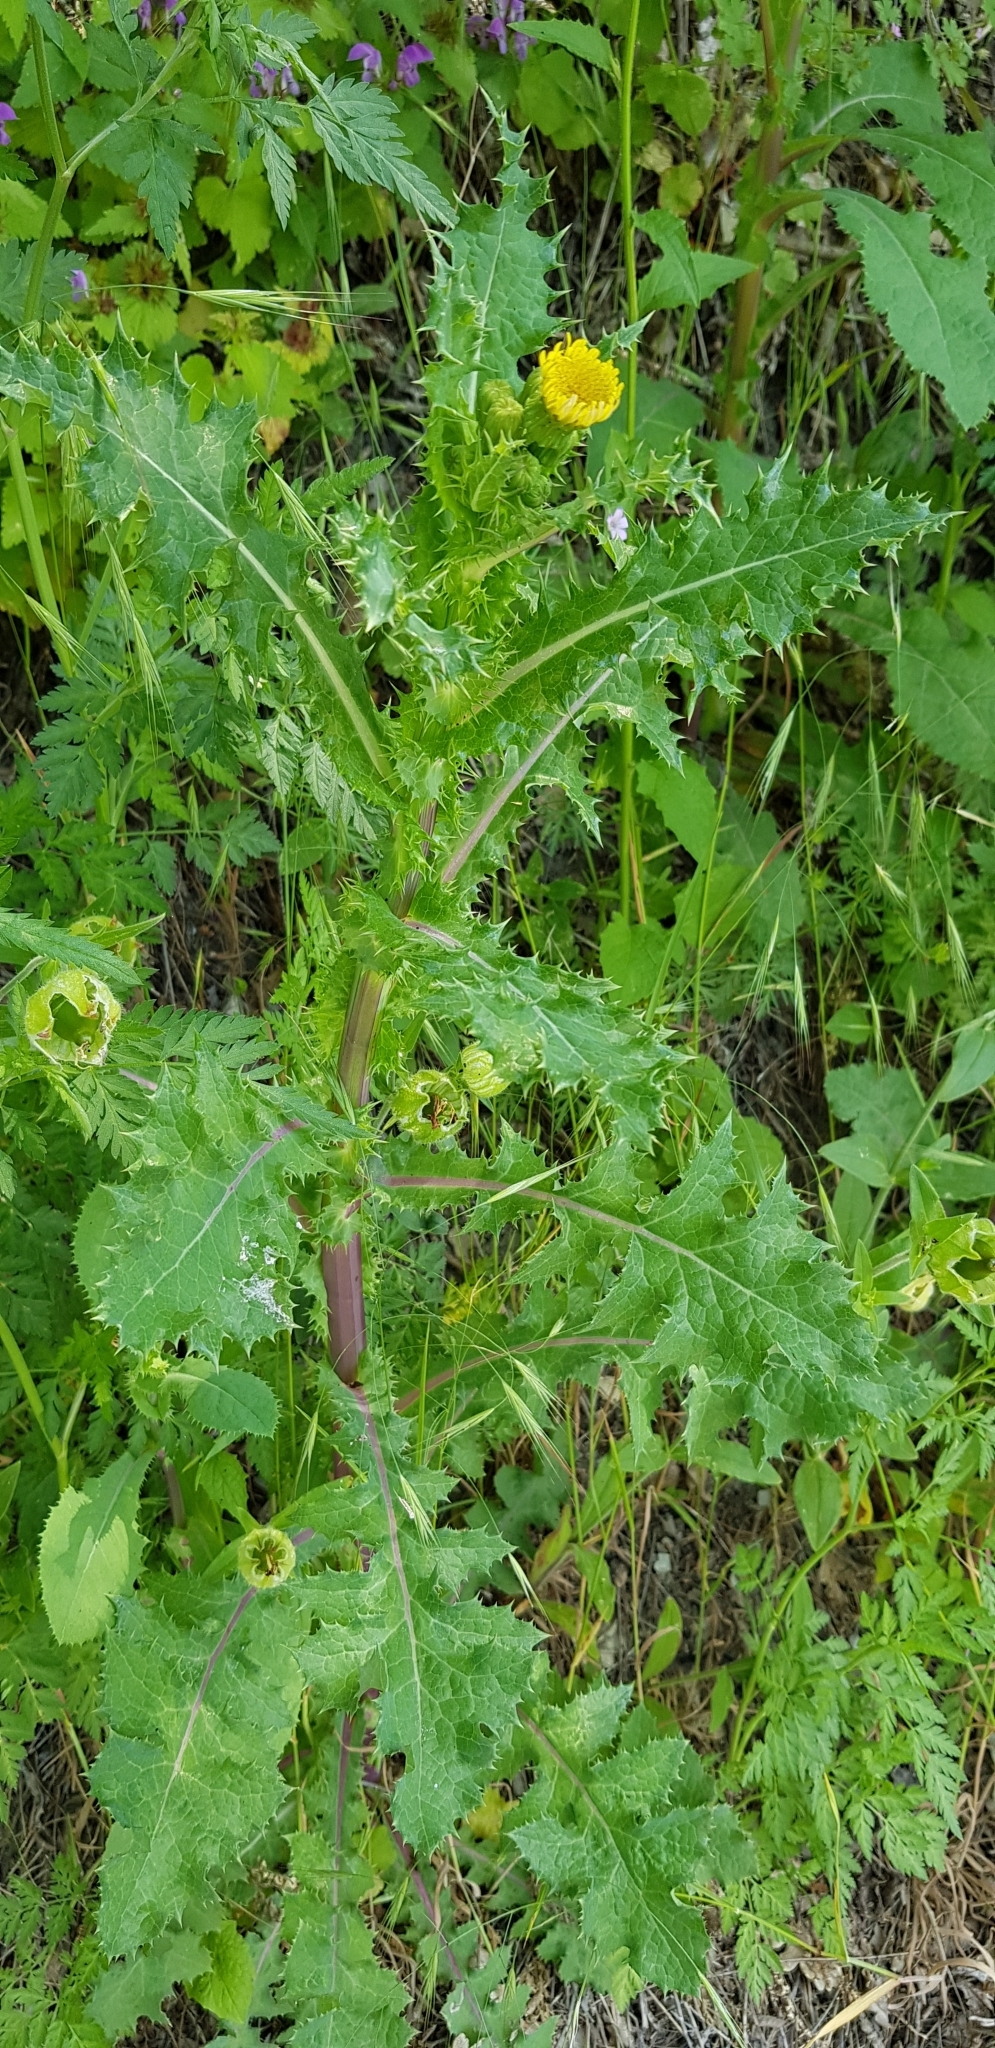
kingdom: Plantae
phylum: Tracheophyta
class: Magnoliopsida
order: Asterales
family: Asteraceae
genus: Sonchus
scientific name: Sonchus asper
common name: Prickly sow-thistle
